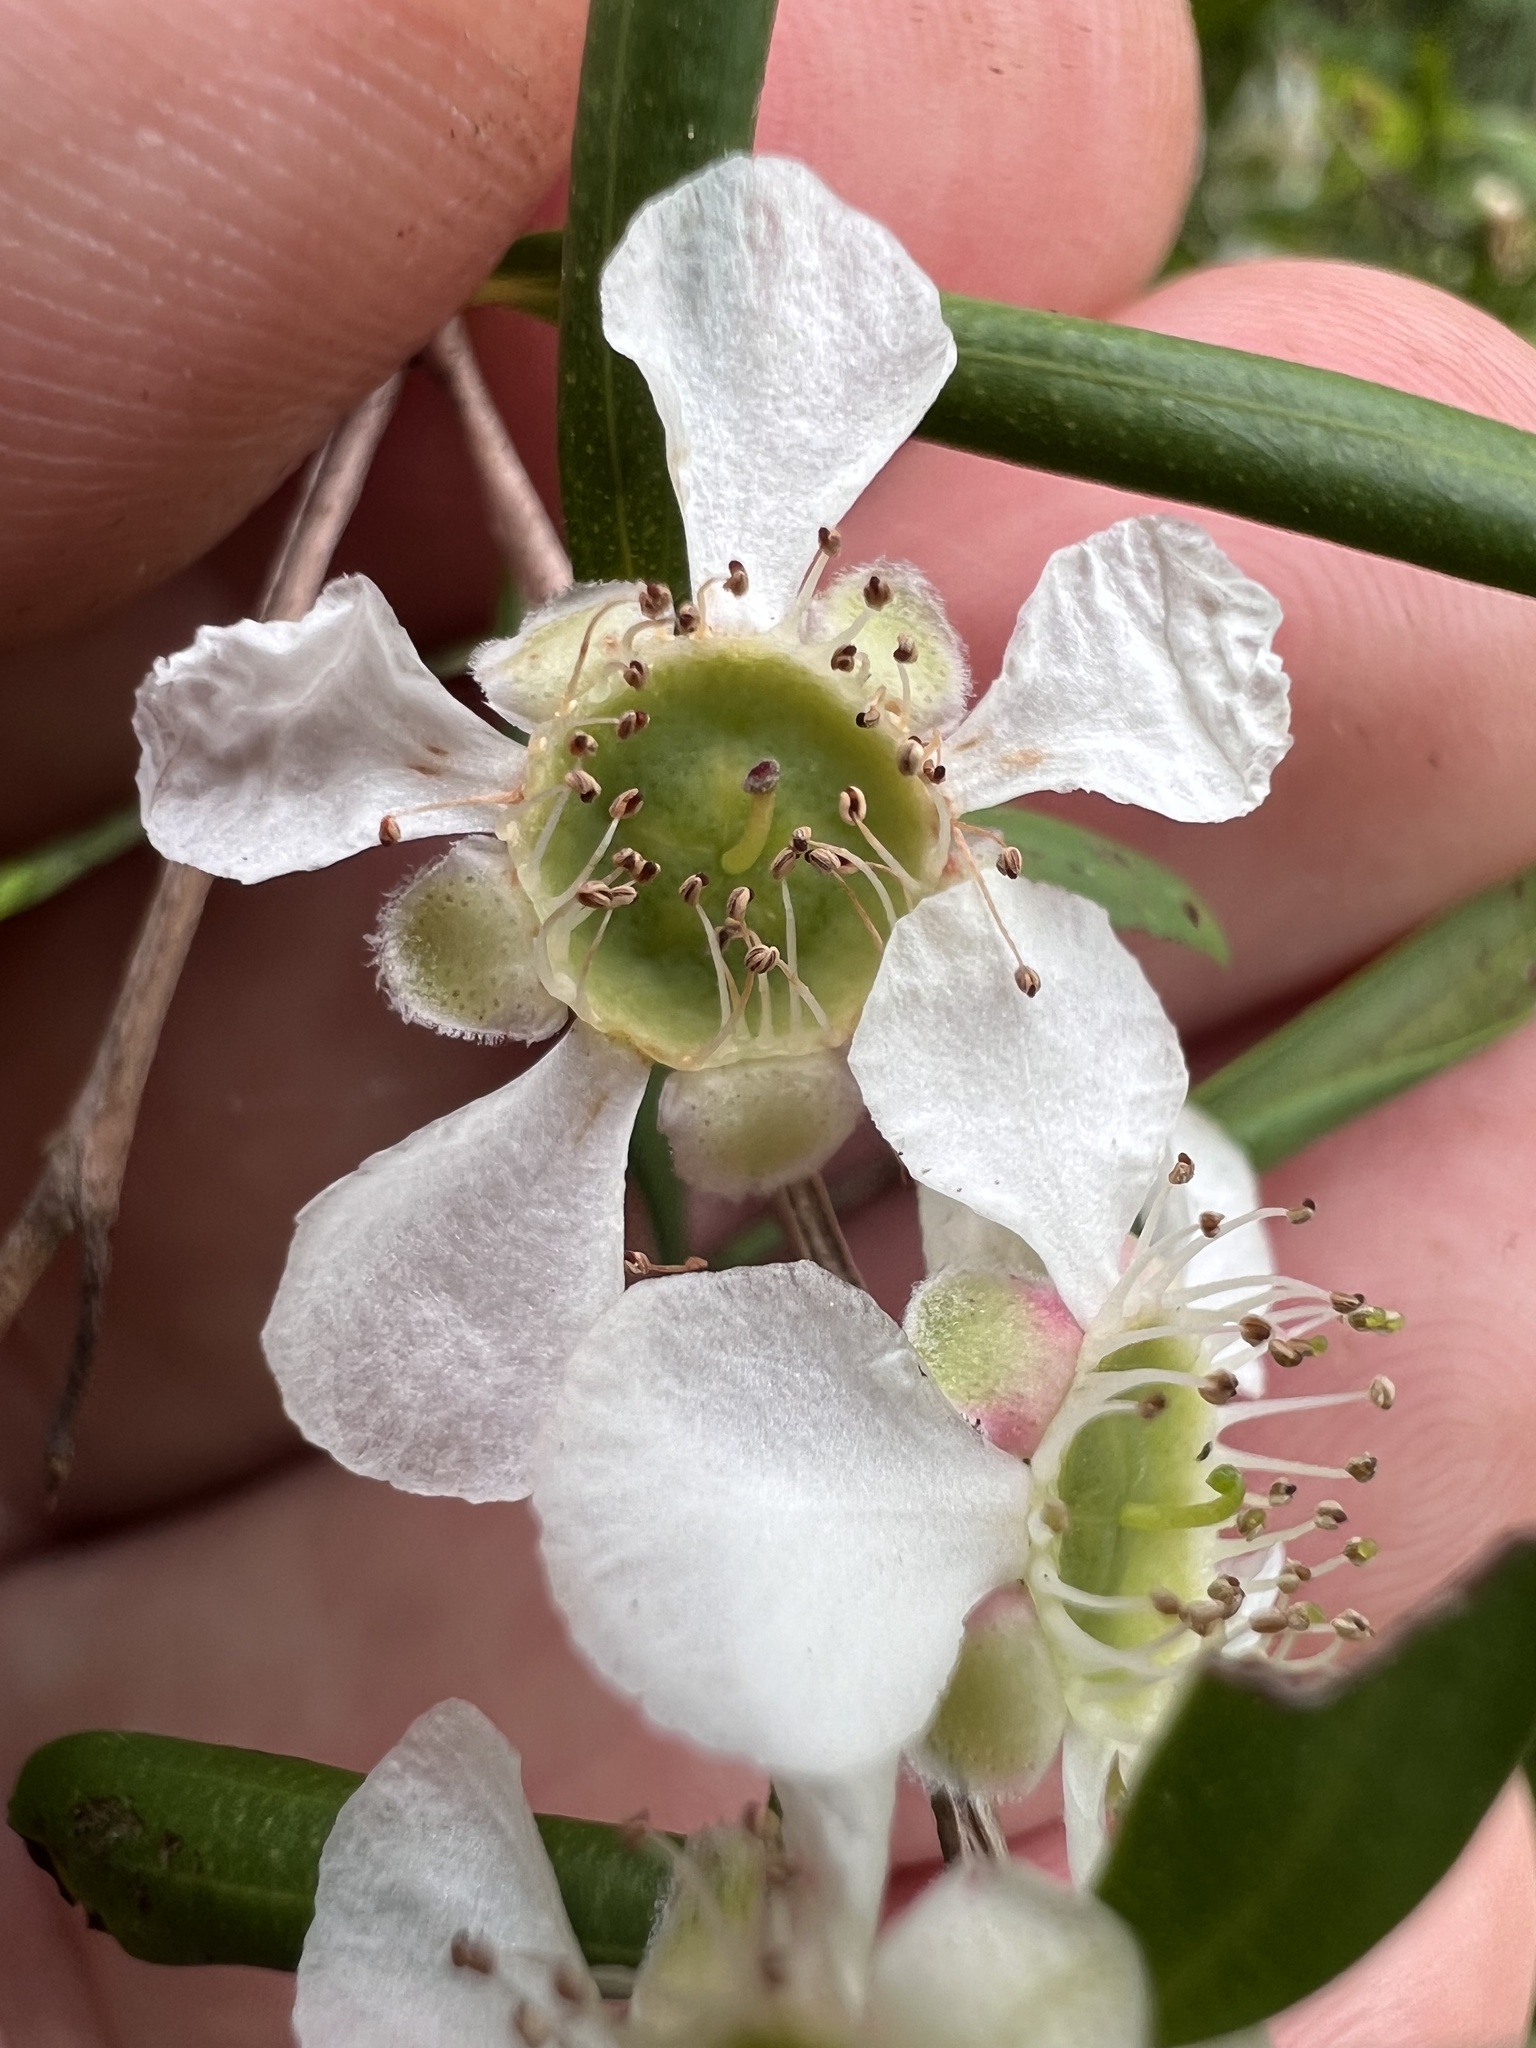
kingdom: Plantae
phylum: Tracheophyta
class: Magnoliopsida
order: Myrtales
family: Myrtaceae
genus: Leptospermum
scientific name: Leptospermum javanicum
